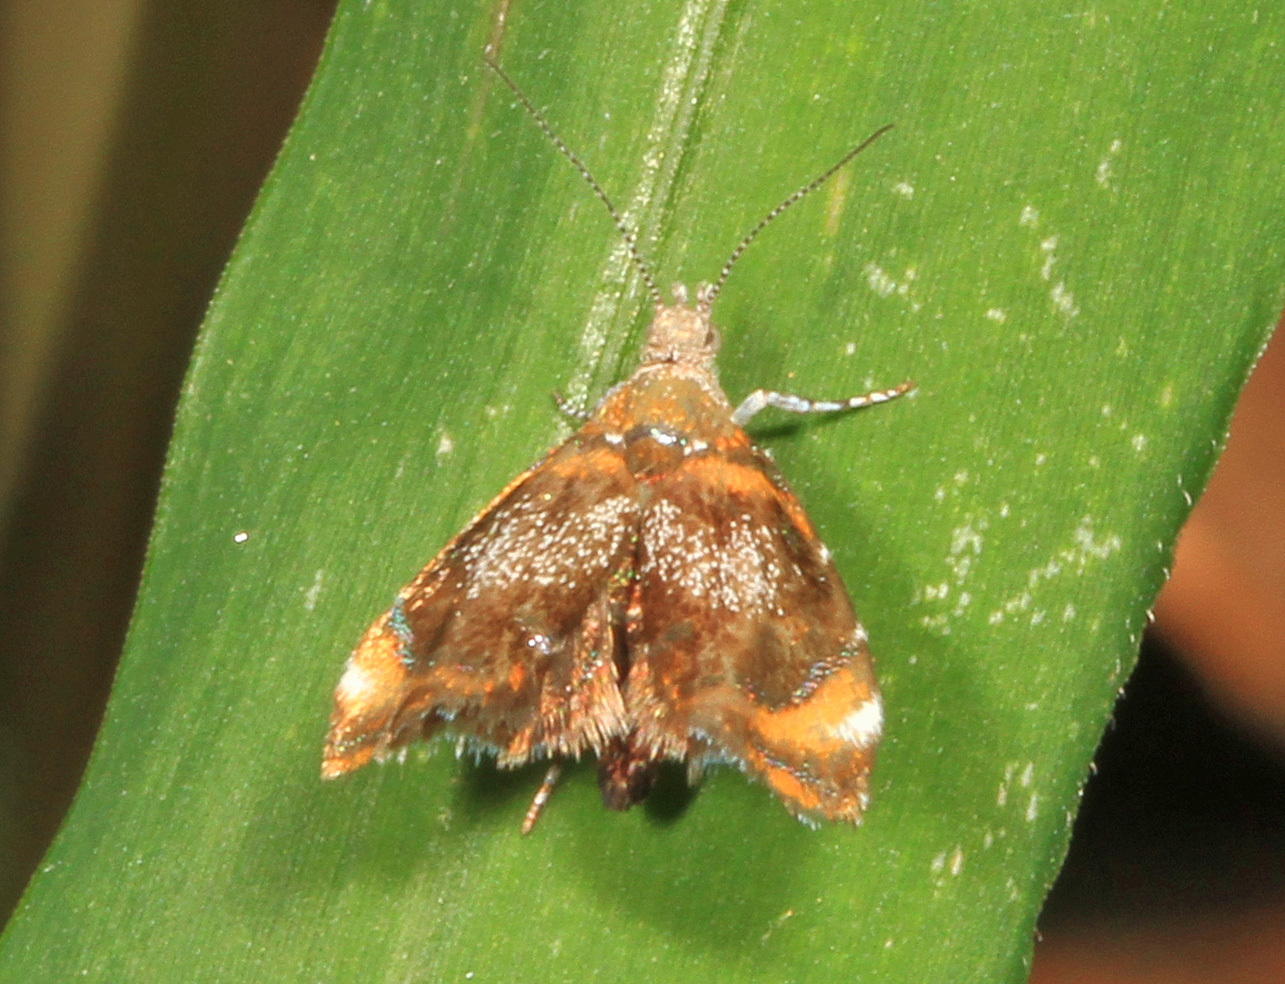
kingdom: Animalia
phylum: Arthropoda
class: Insecta
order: Lepidoptera
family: Choreutidae
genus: Prochoreutis
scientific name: Prochoreutis inflatella
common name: Skullcap skeletonizer moth
